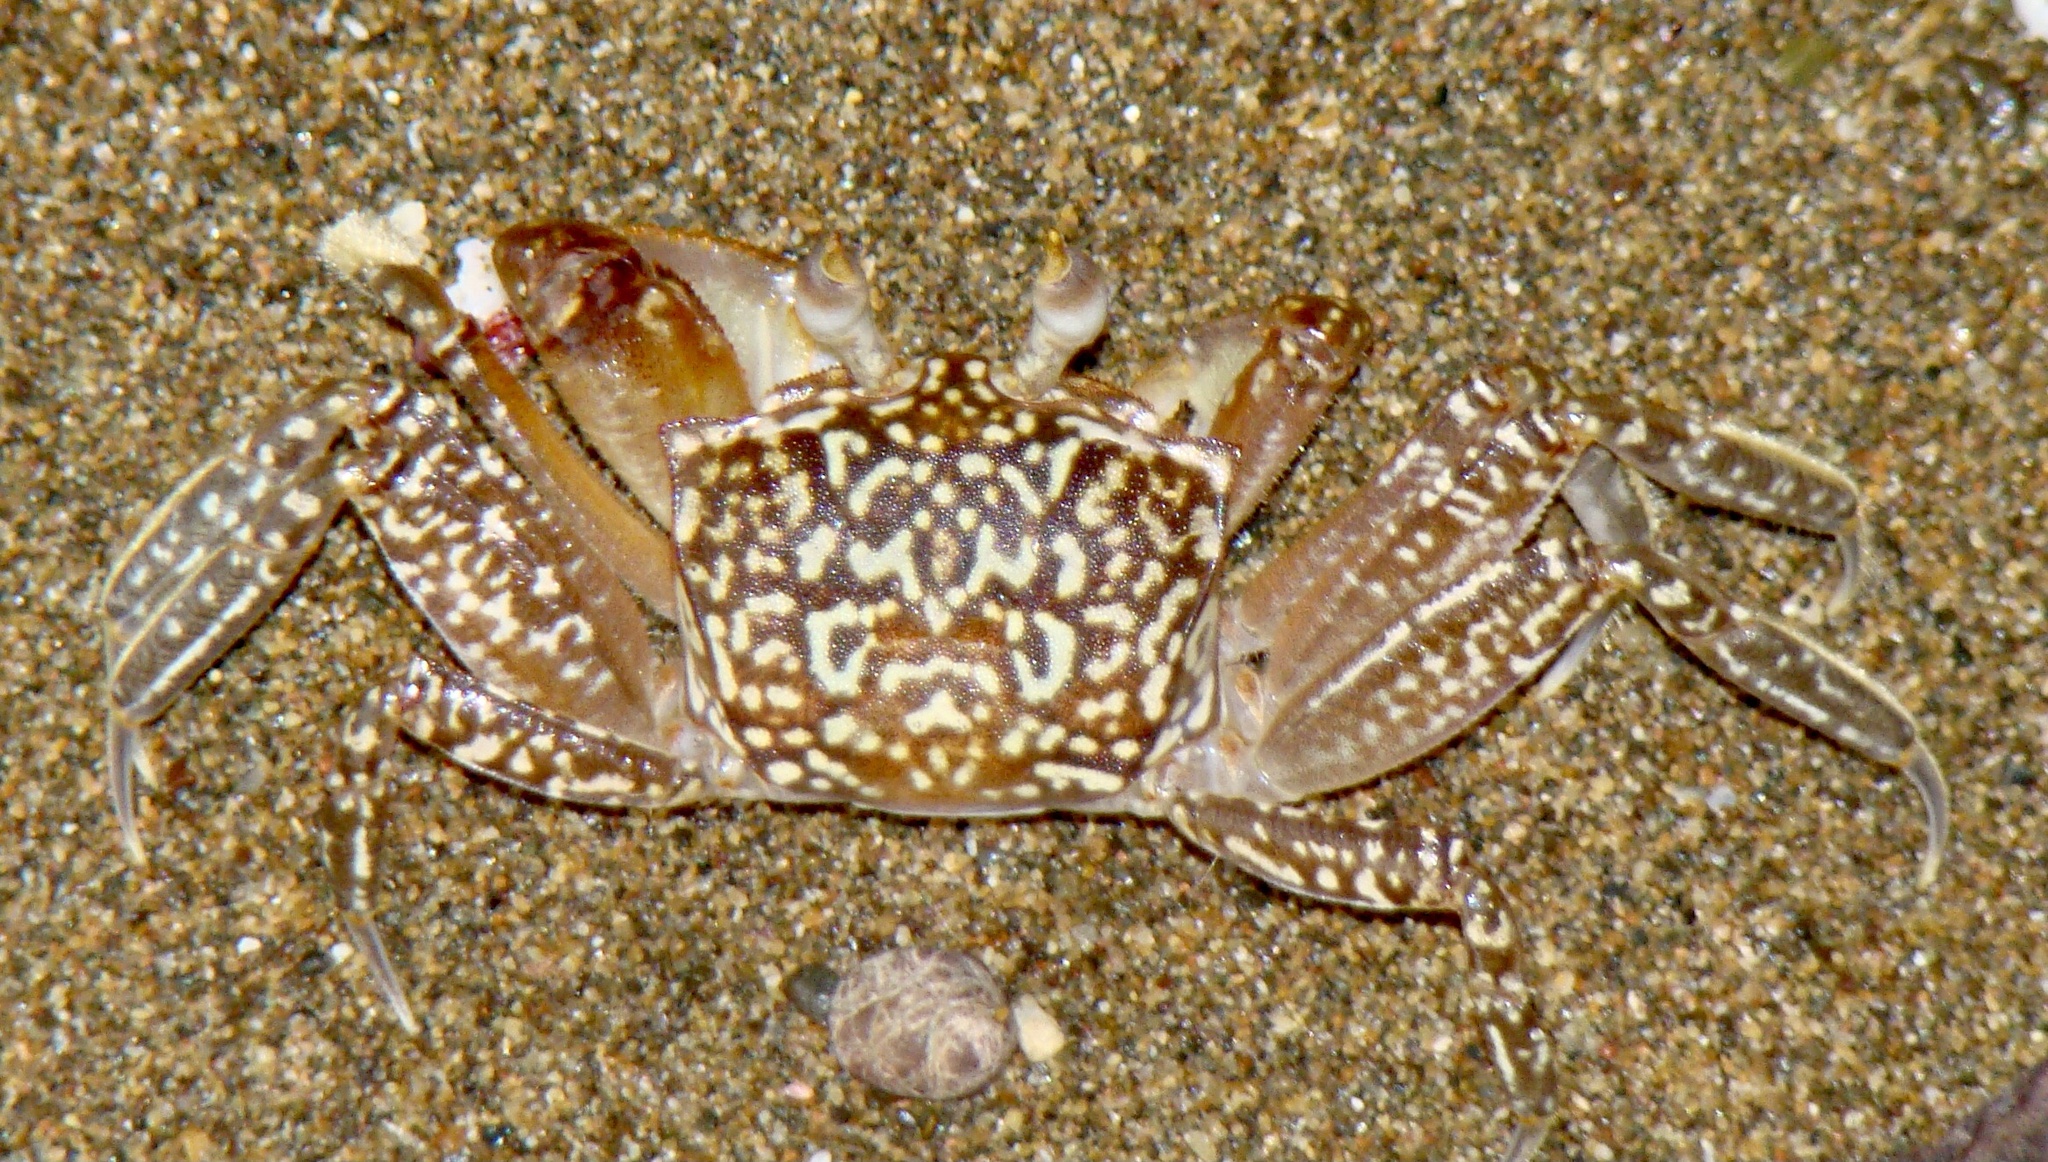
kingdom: Animalia
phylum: Arthropoda
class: Malacostraca
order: Decapoda
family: Ocypodidae
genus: Ocypode
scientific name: Ocypode gaudichaudii
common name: Pacific ghost crab
